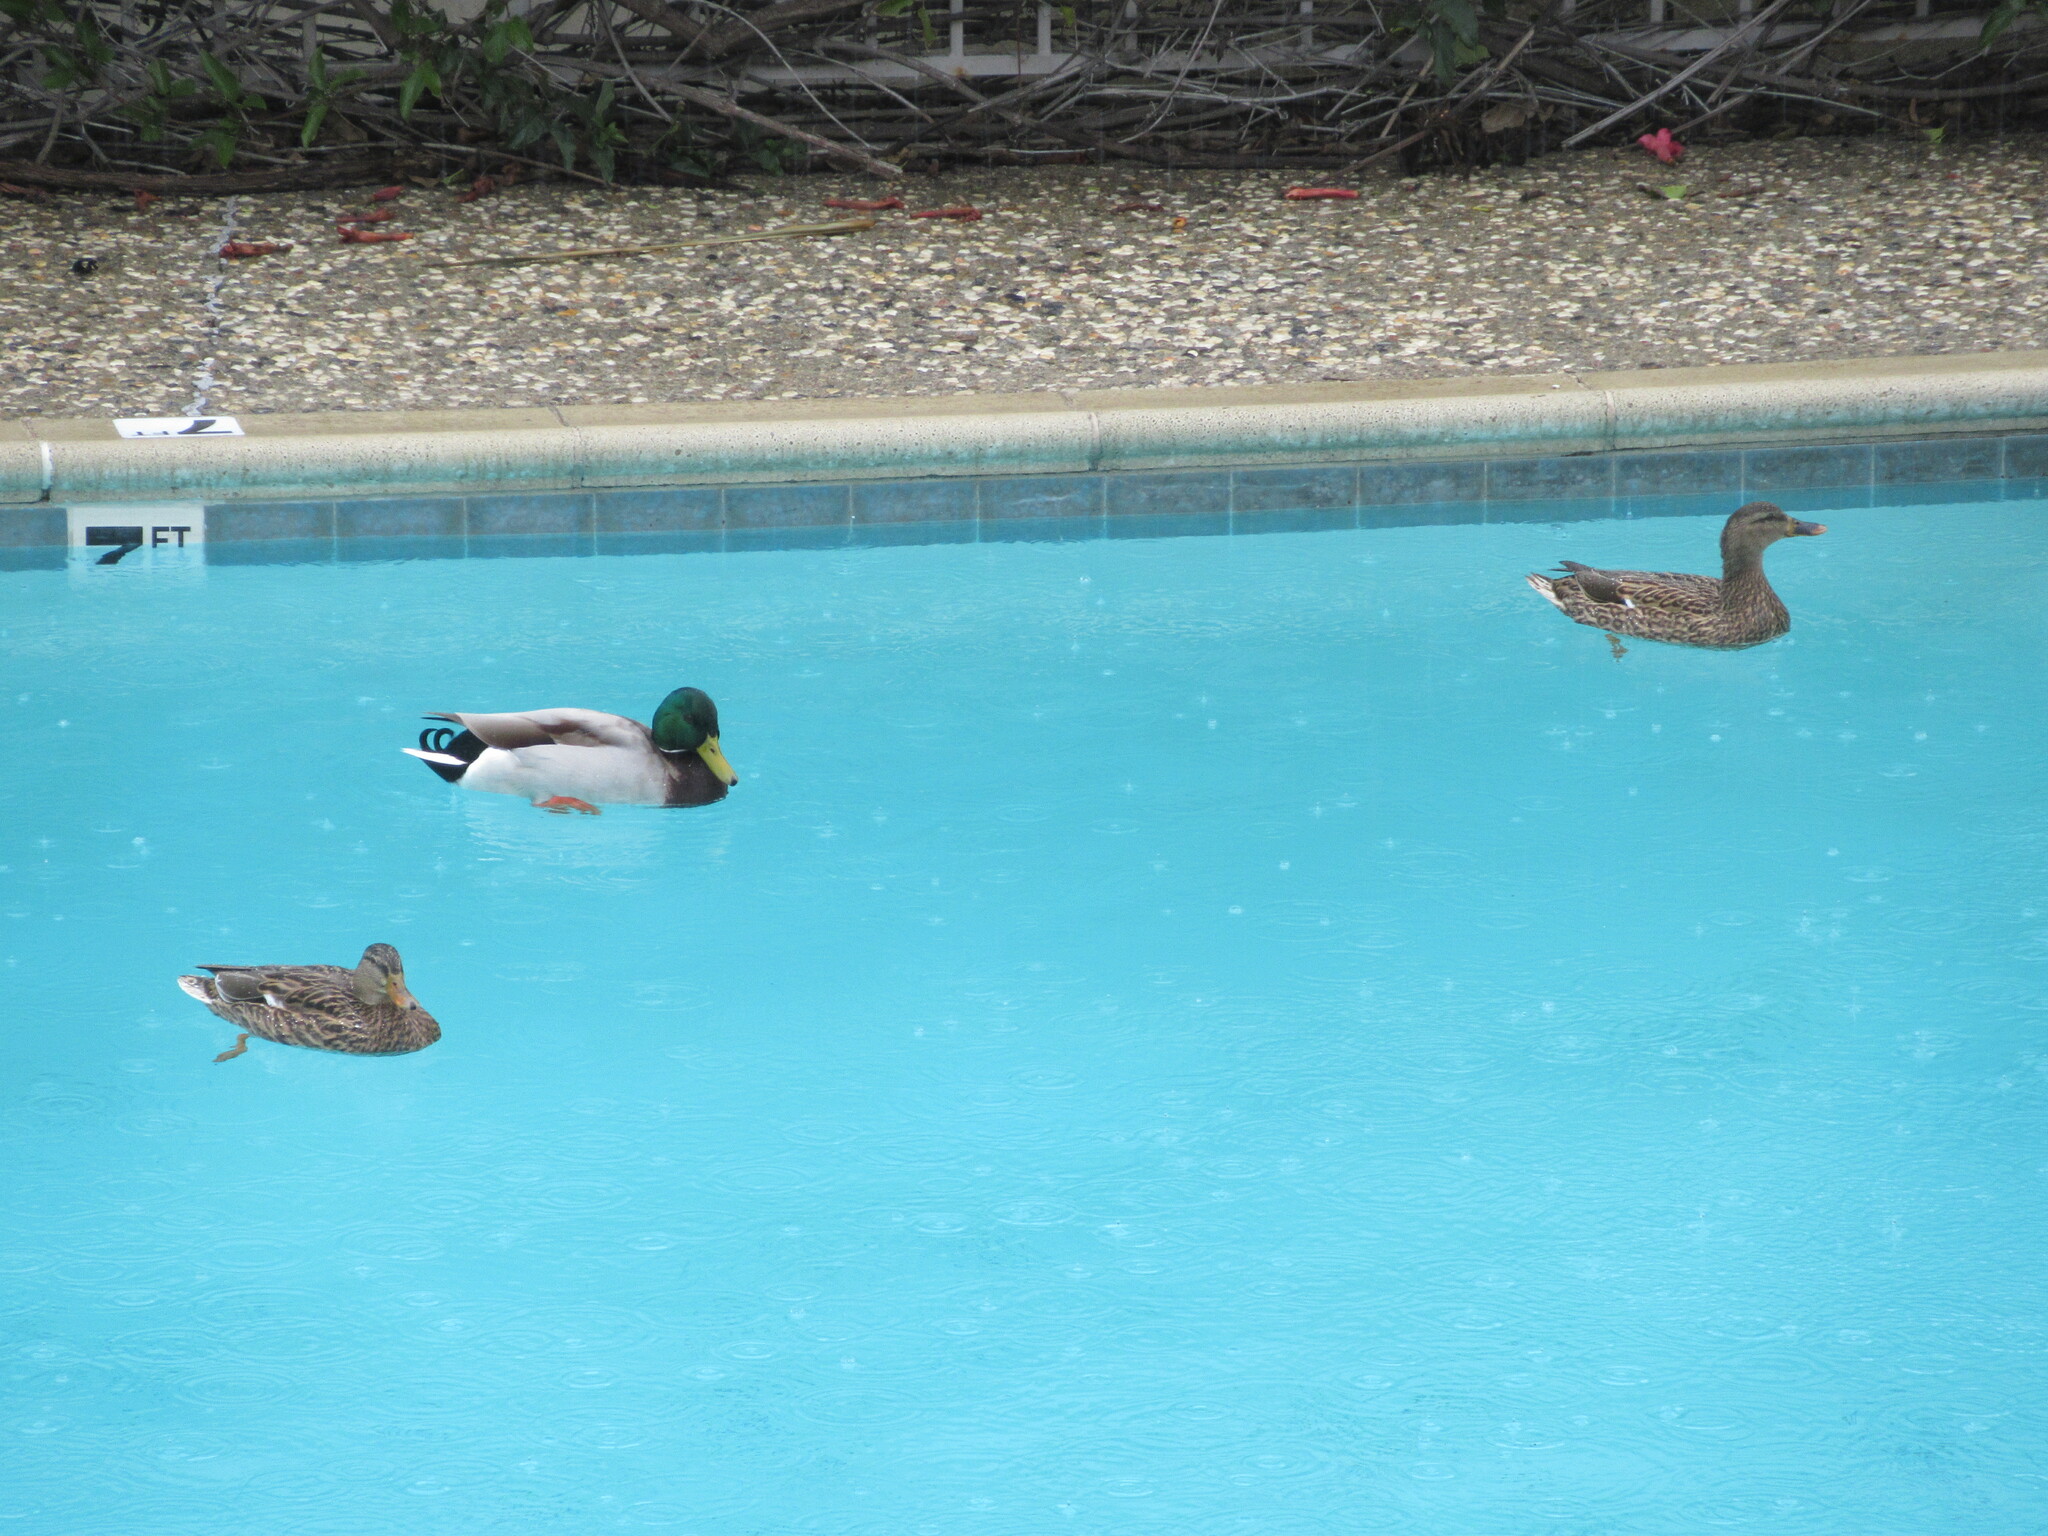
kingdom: Animalia
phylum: Chordata
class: Aves
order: Anseriformes
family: Anatidae
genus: Anas
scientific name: Anas platyrhynchos
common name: Mallard
